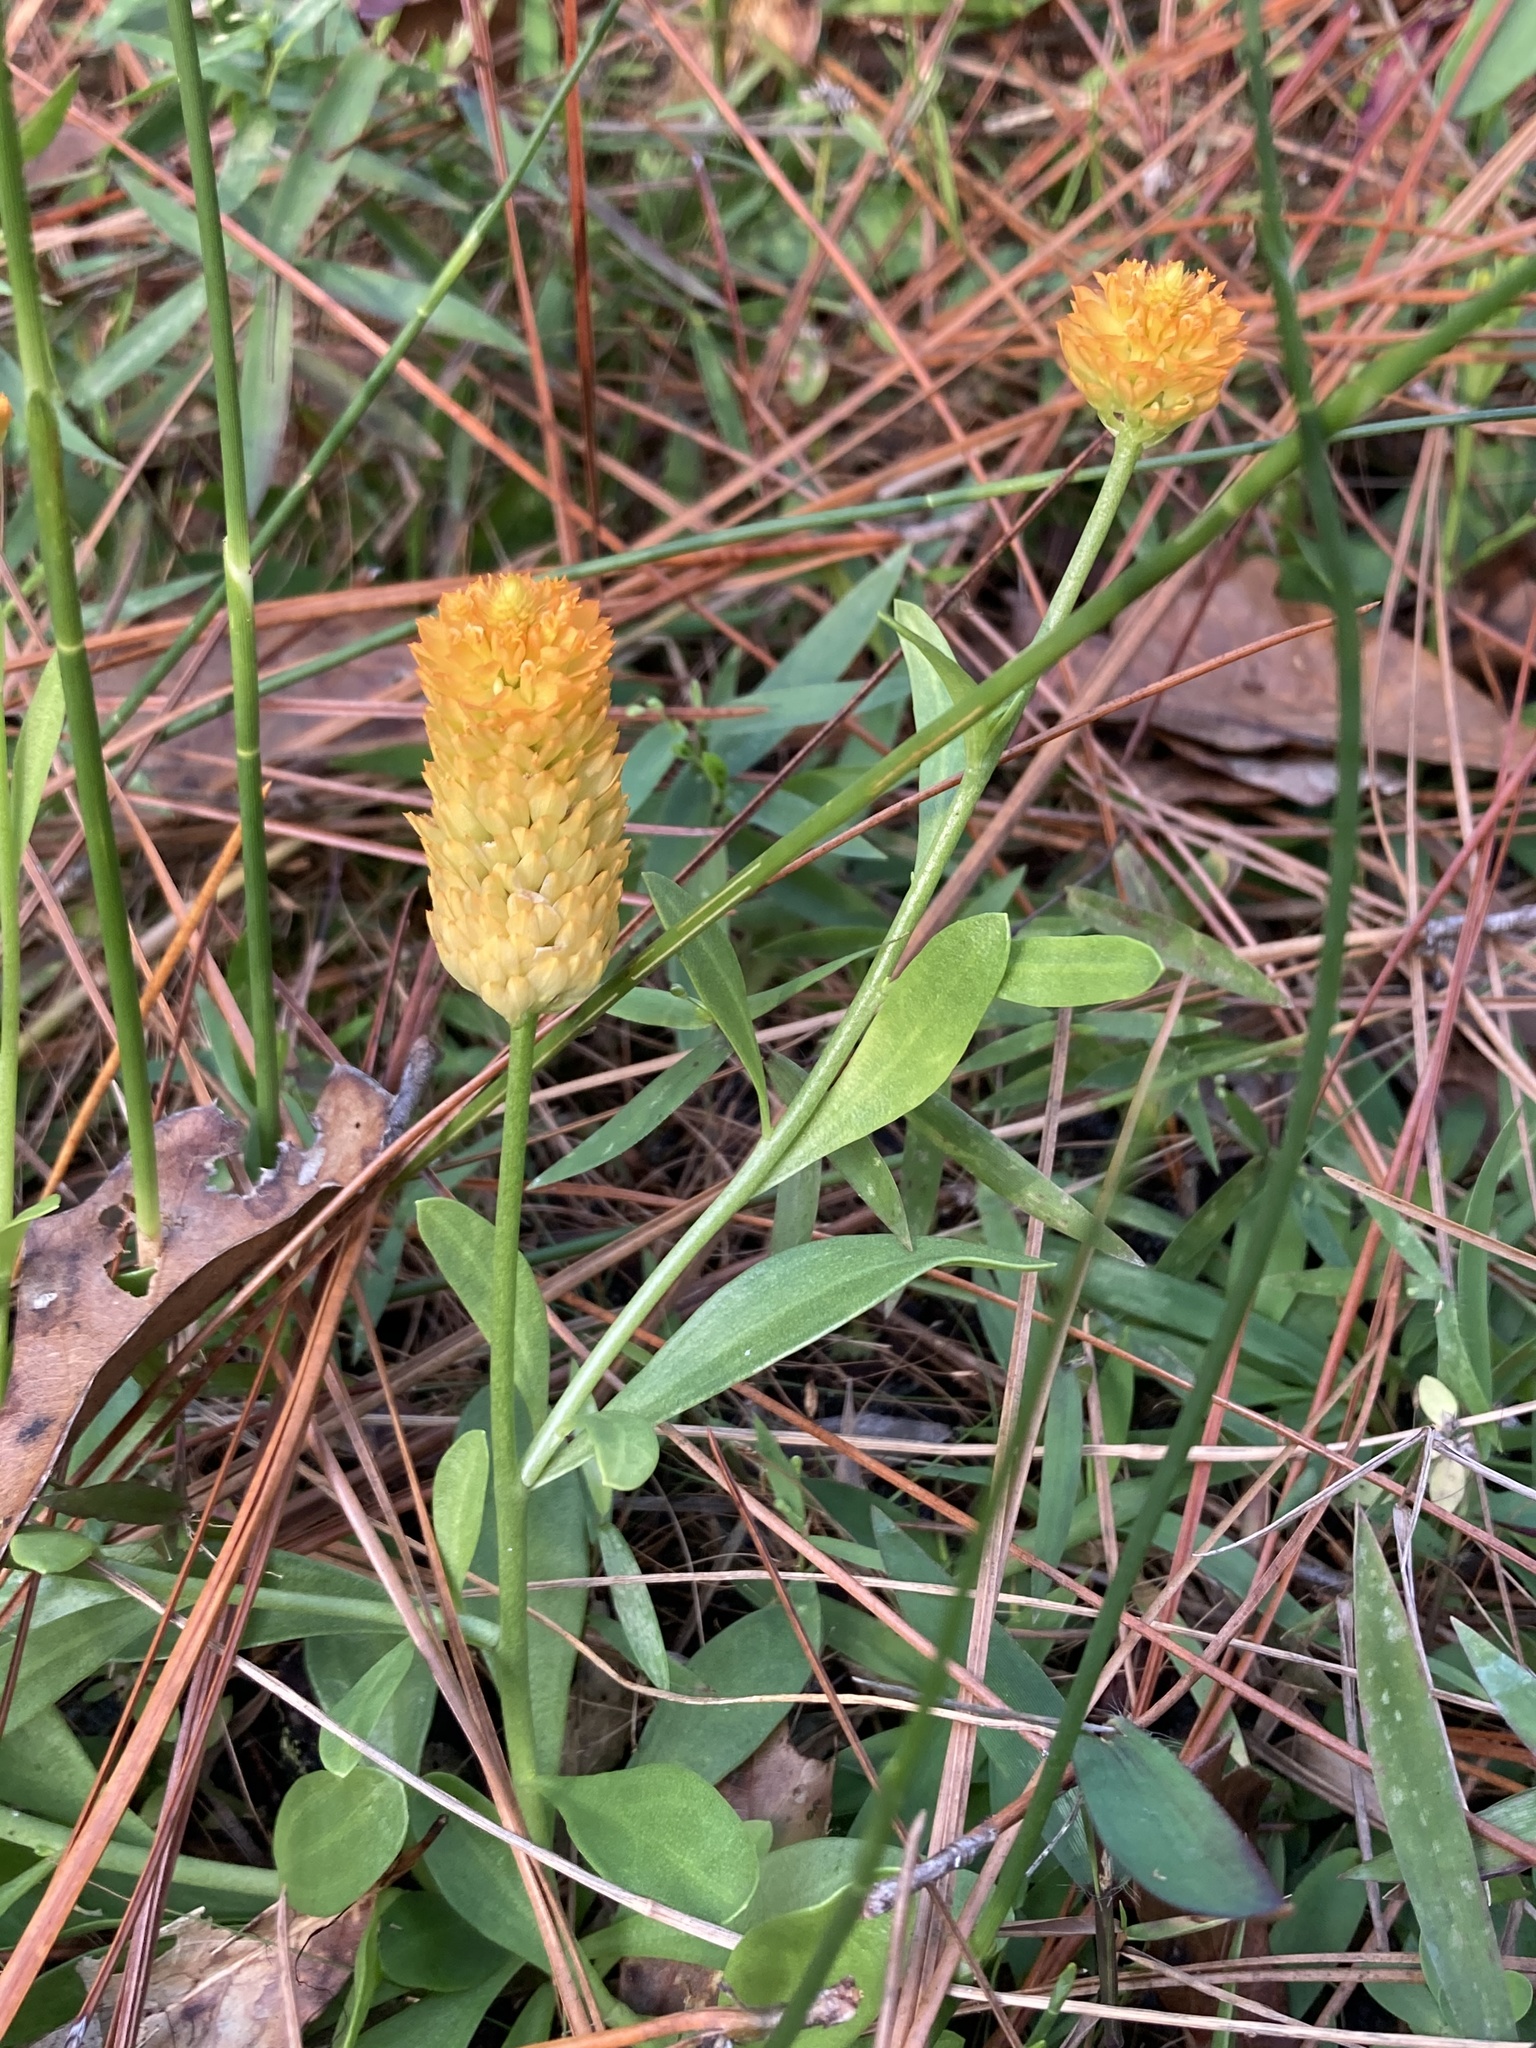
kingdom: Plantae
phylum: Tracheophyta
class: Magnoliopsida
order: Fabales
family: Polygalaceae
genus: Polygala
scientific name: Polygala lutea
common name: Orange milkwort
